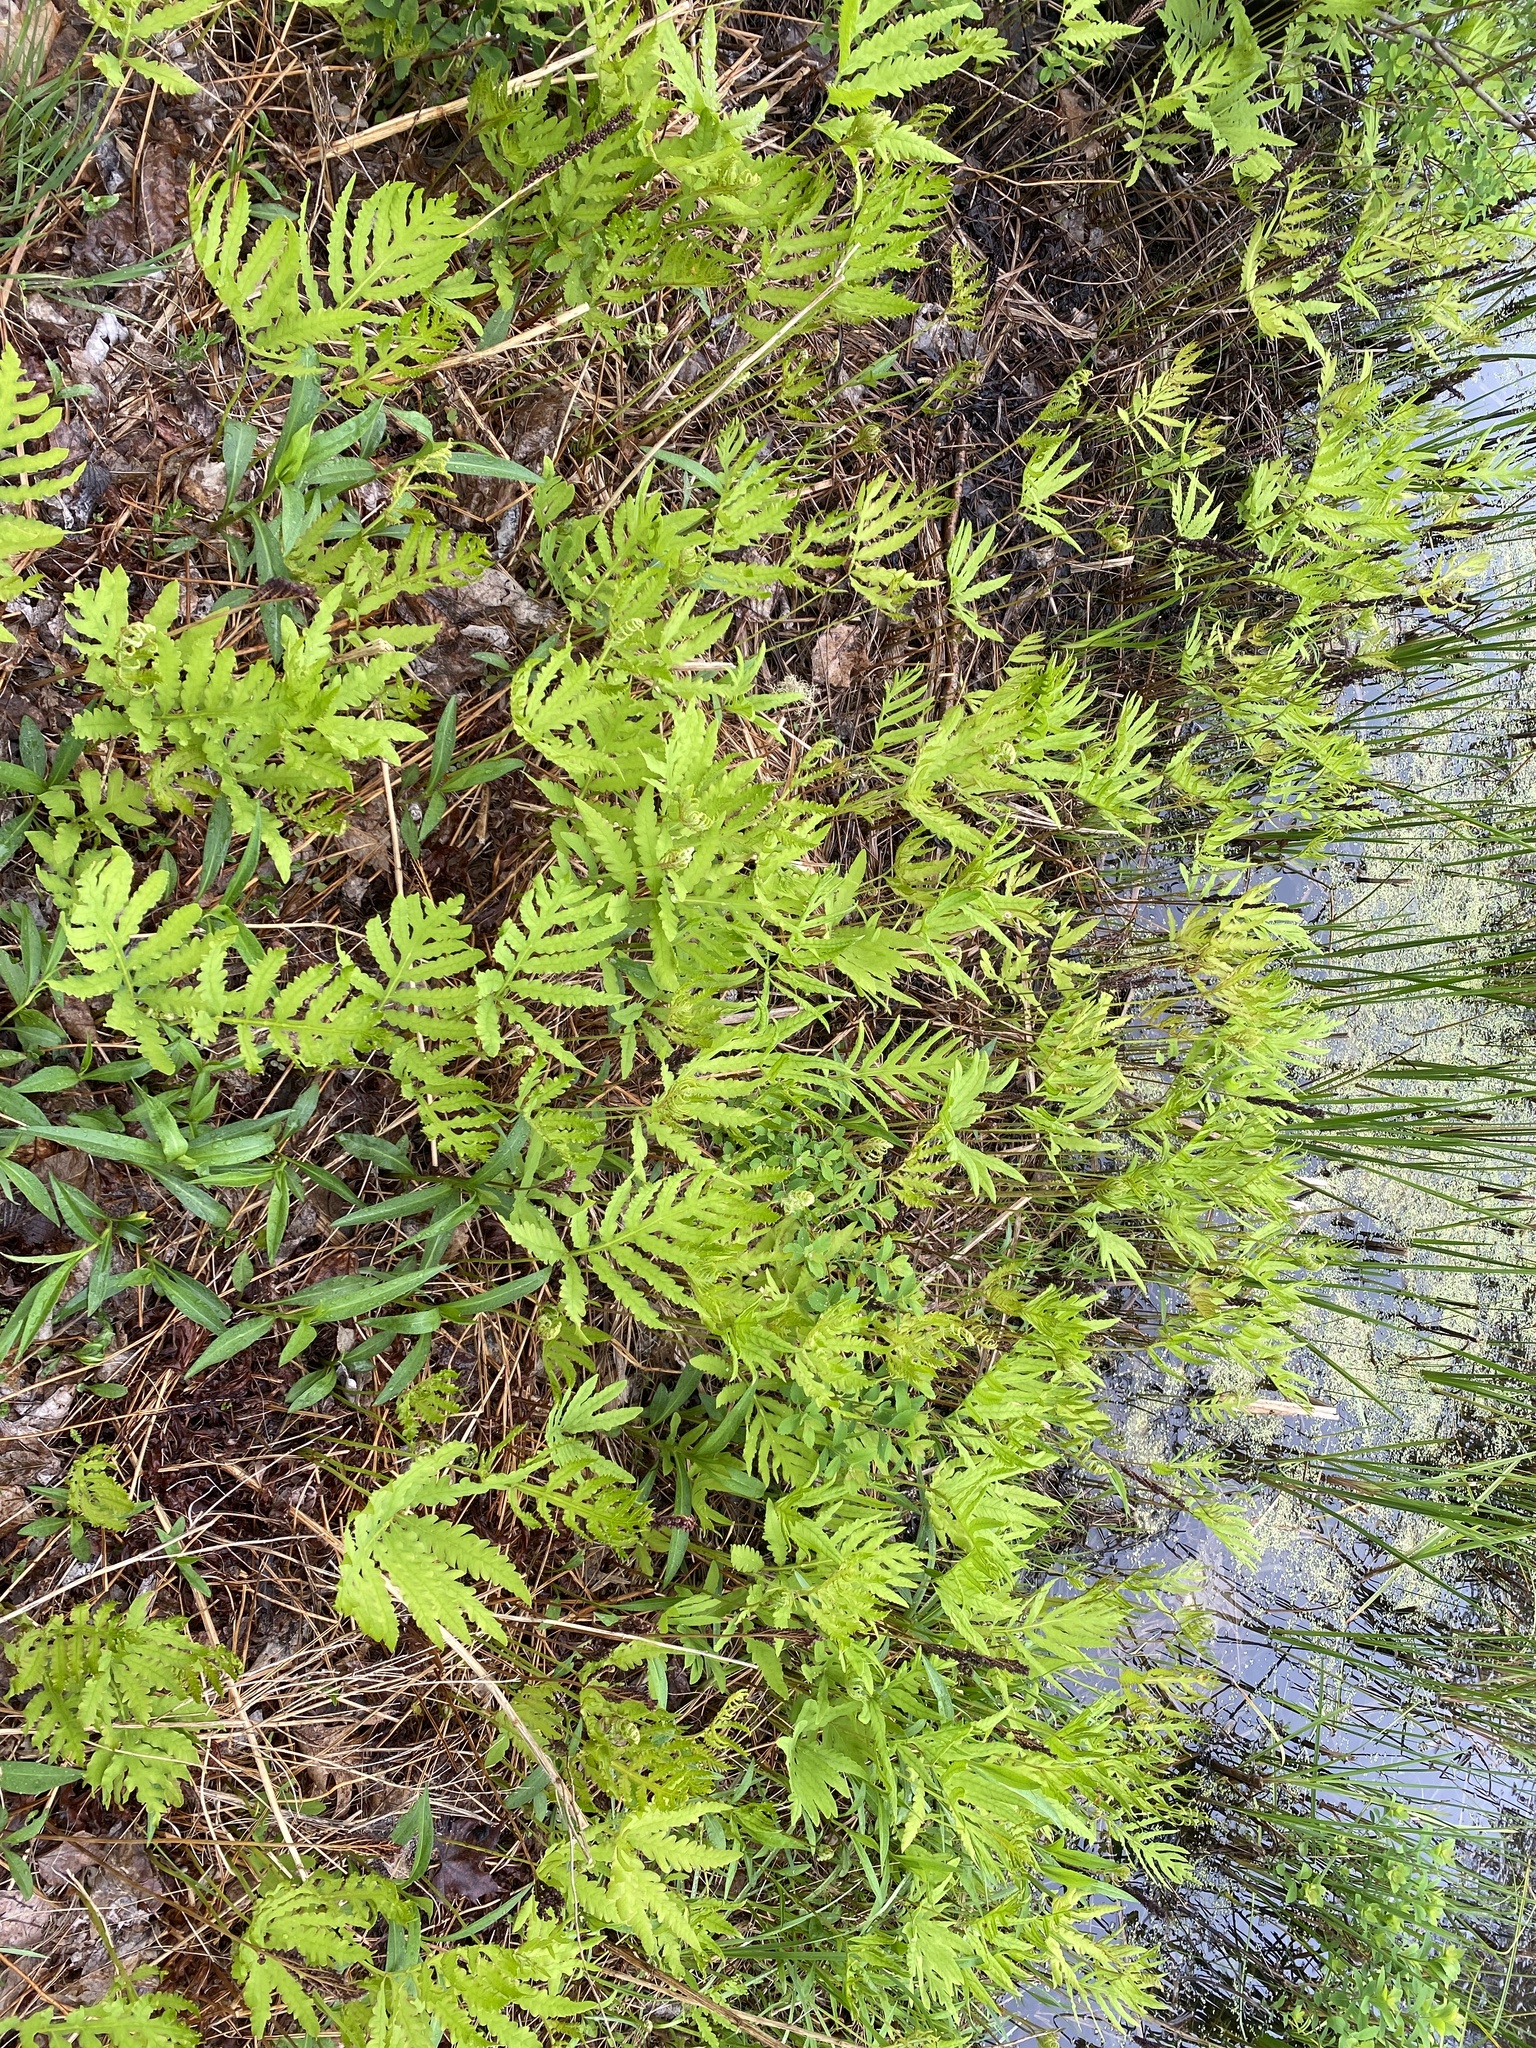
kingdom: Plantae
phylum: Tracheophyta
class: Polypodiopsida
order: Polypodiales
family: Onocleaceae
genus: Onoclea
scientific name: Onoclea sensibilis
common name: Sensitive fern
